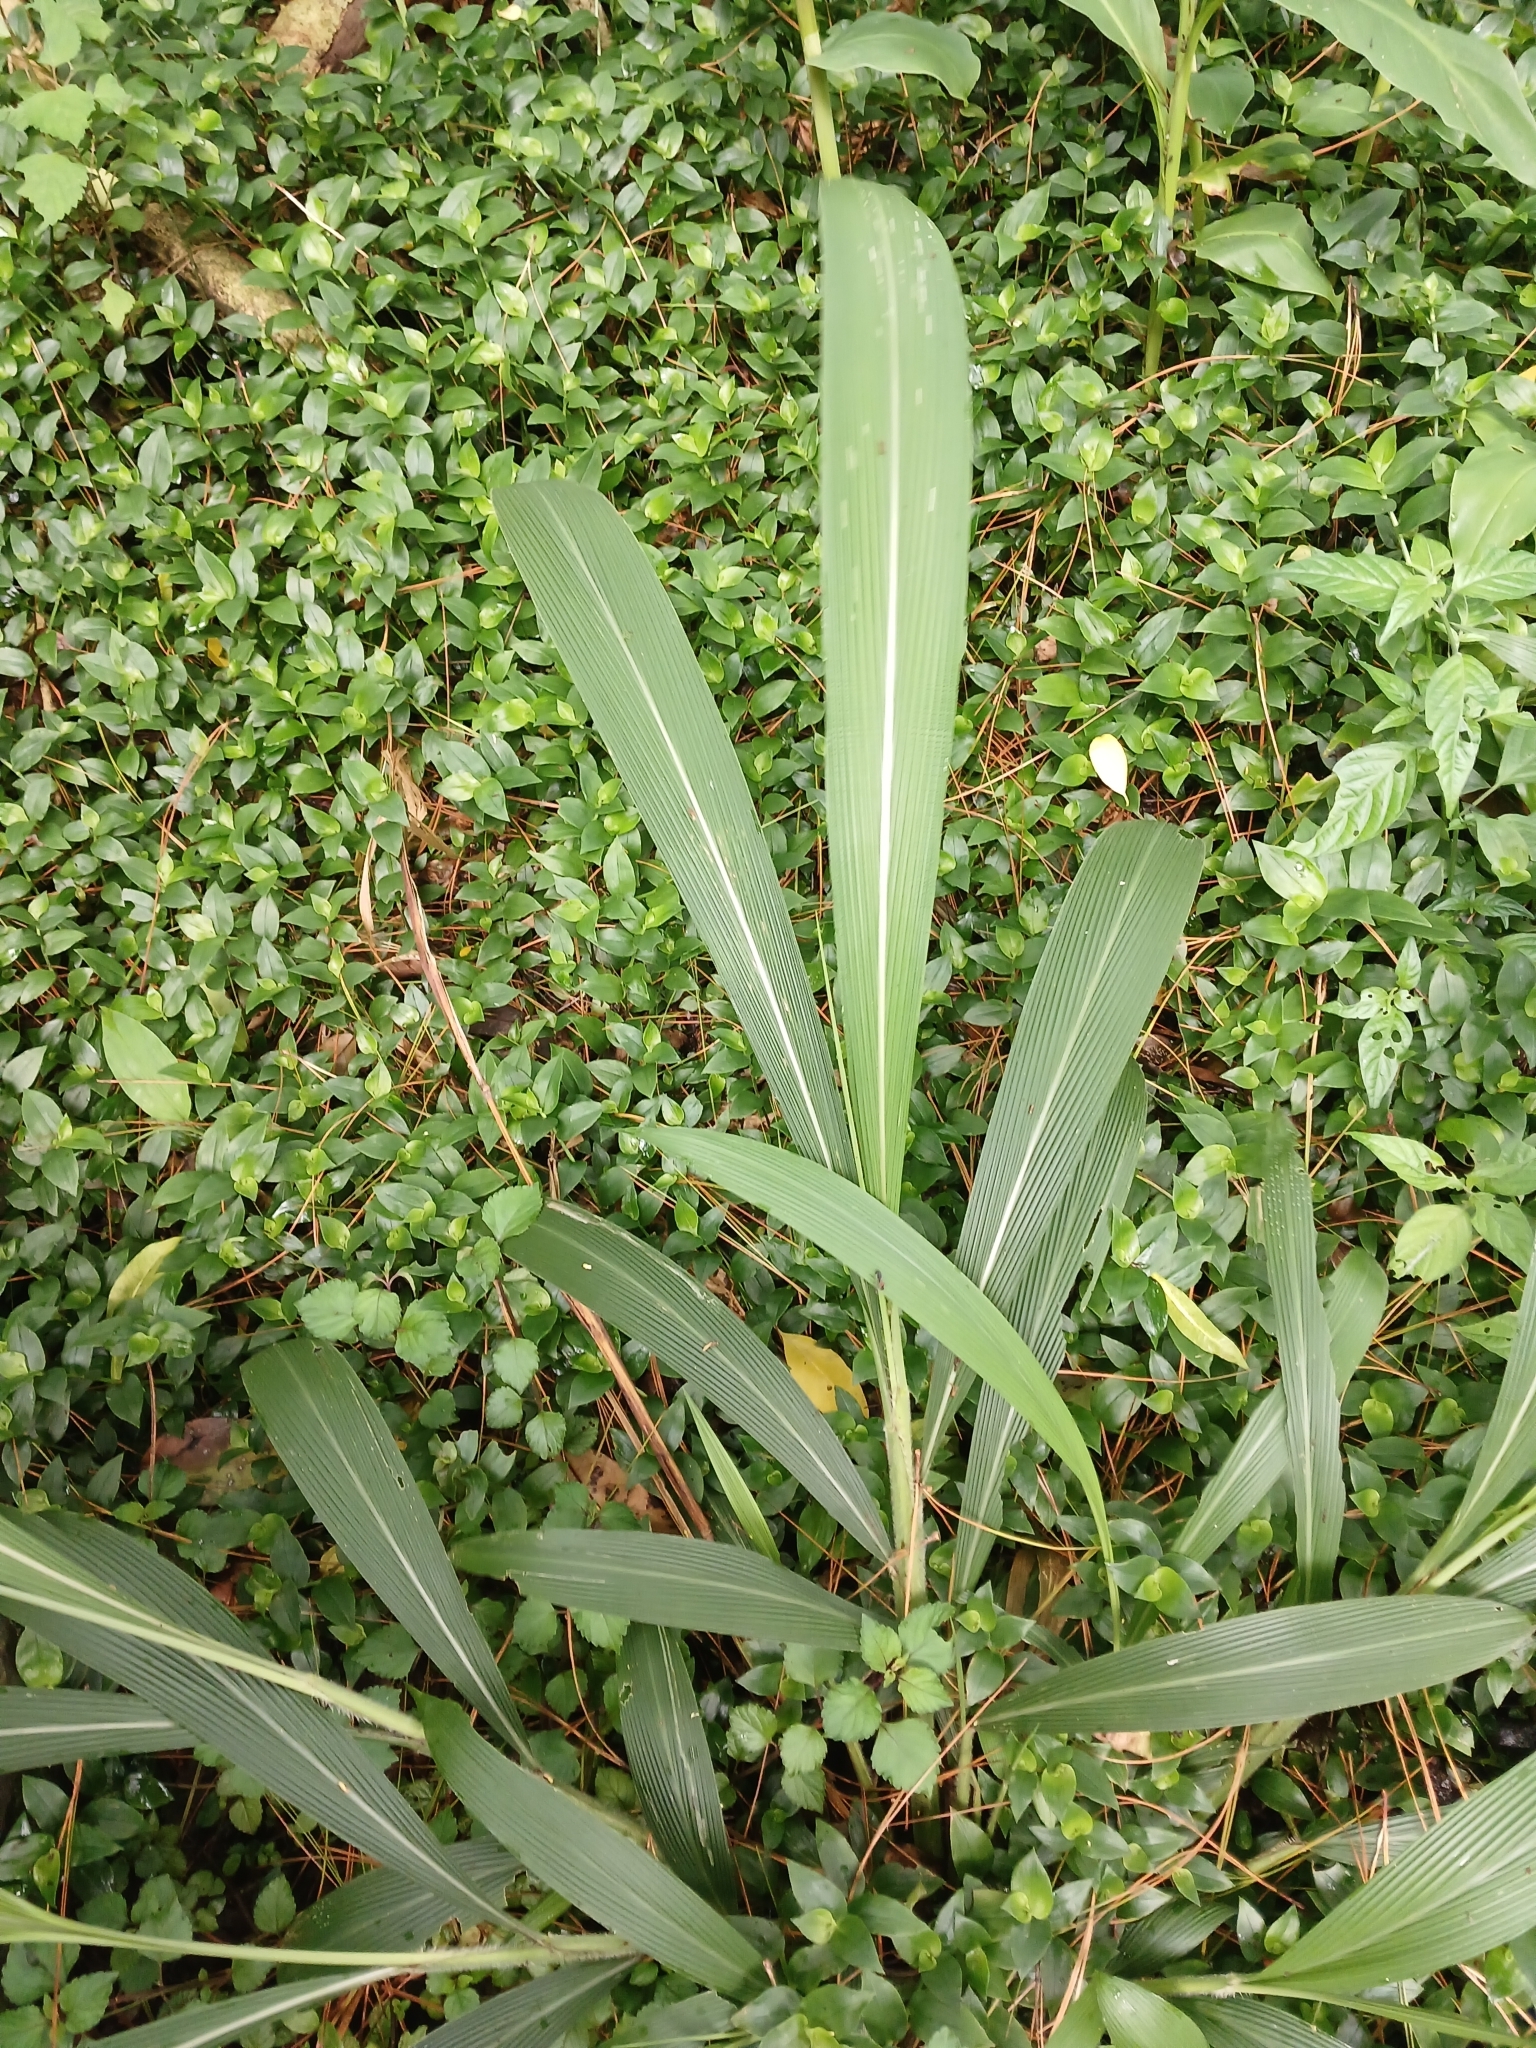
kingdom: Plantae
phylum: Tracheophyta
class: Liliopsida
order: Poales
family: Poaceae
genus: Setaria
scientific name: Setaria megaphylla
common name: Bigleaf bristlegrass
